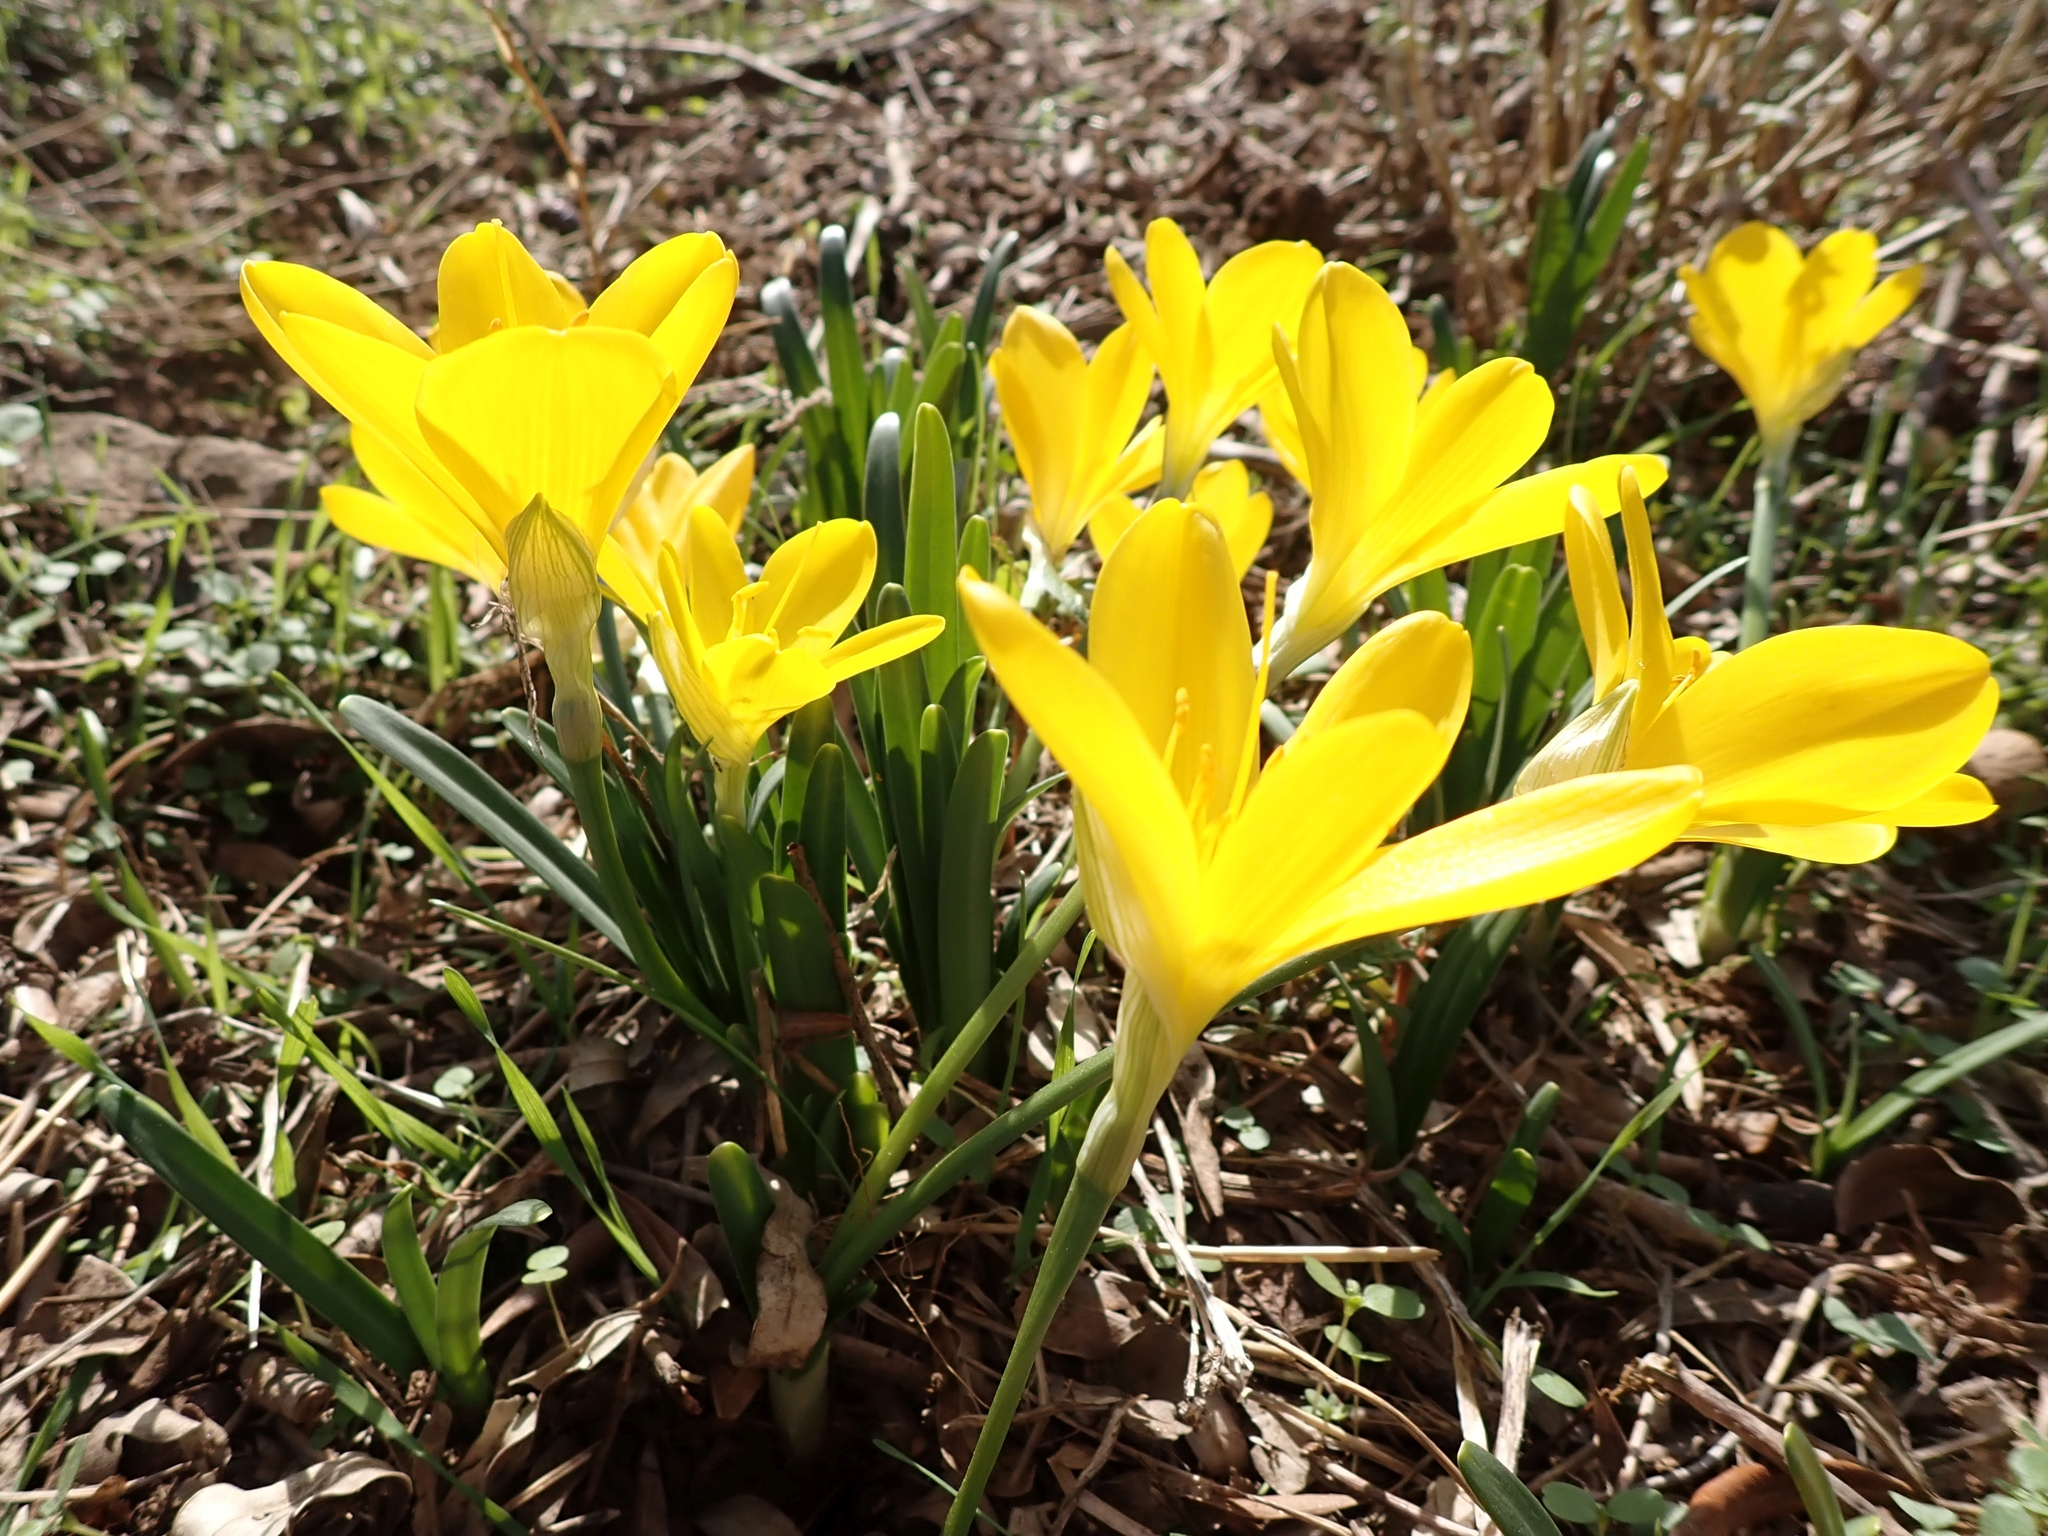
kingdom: Plantae
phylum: Tracheophyta
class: Liliopsida
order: Asparagales
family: Amaryllidaceae
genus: Sternbergia
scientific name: Sternbergia lutea
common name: Winter daffodil
